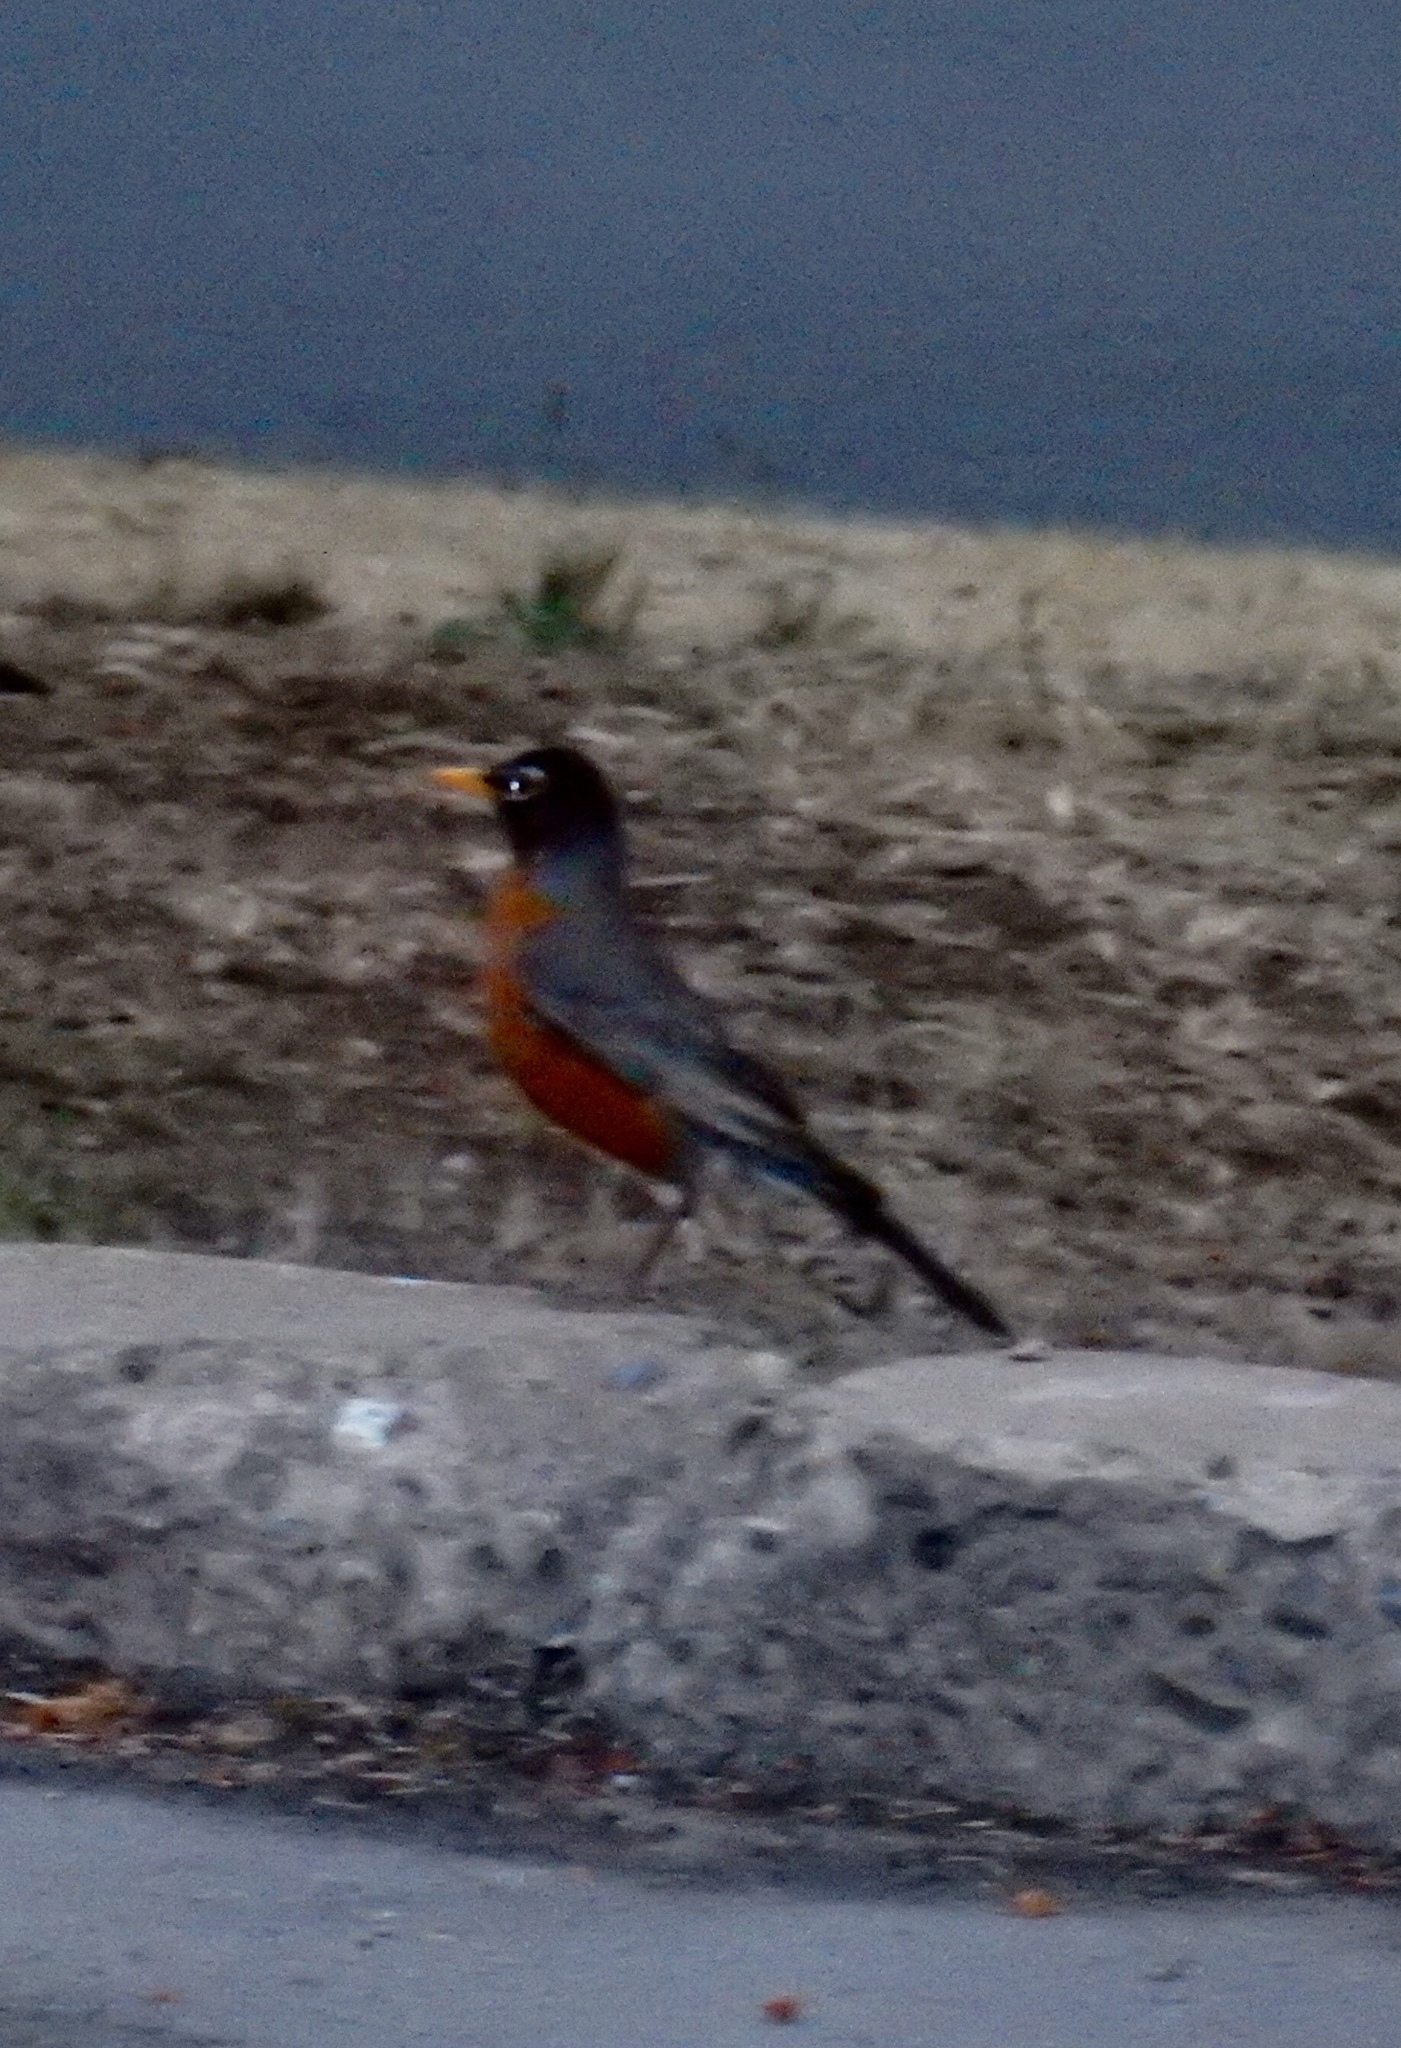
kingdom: Animalia
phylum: Chordata
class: Aves
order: Passeriformes
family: Turdidae
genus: Turdus
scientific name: Turdus migratorius
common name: American robin
